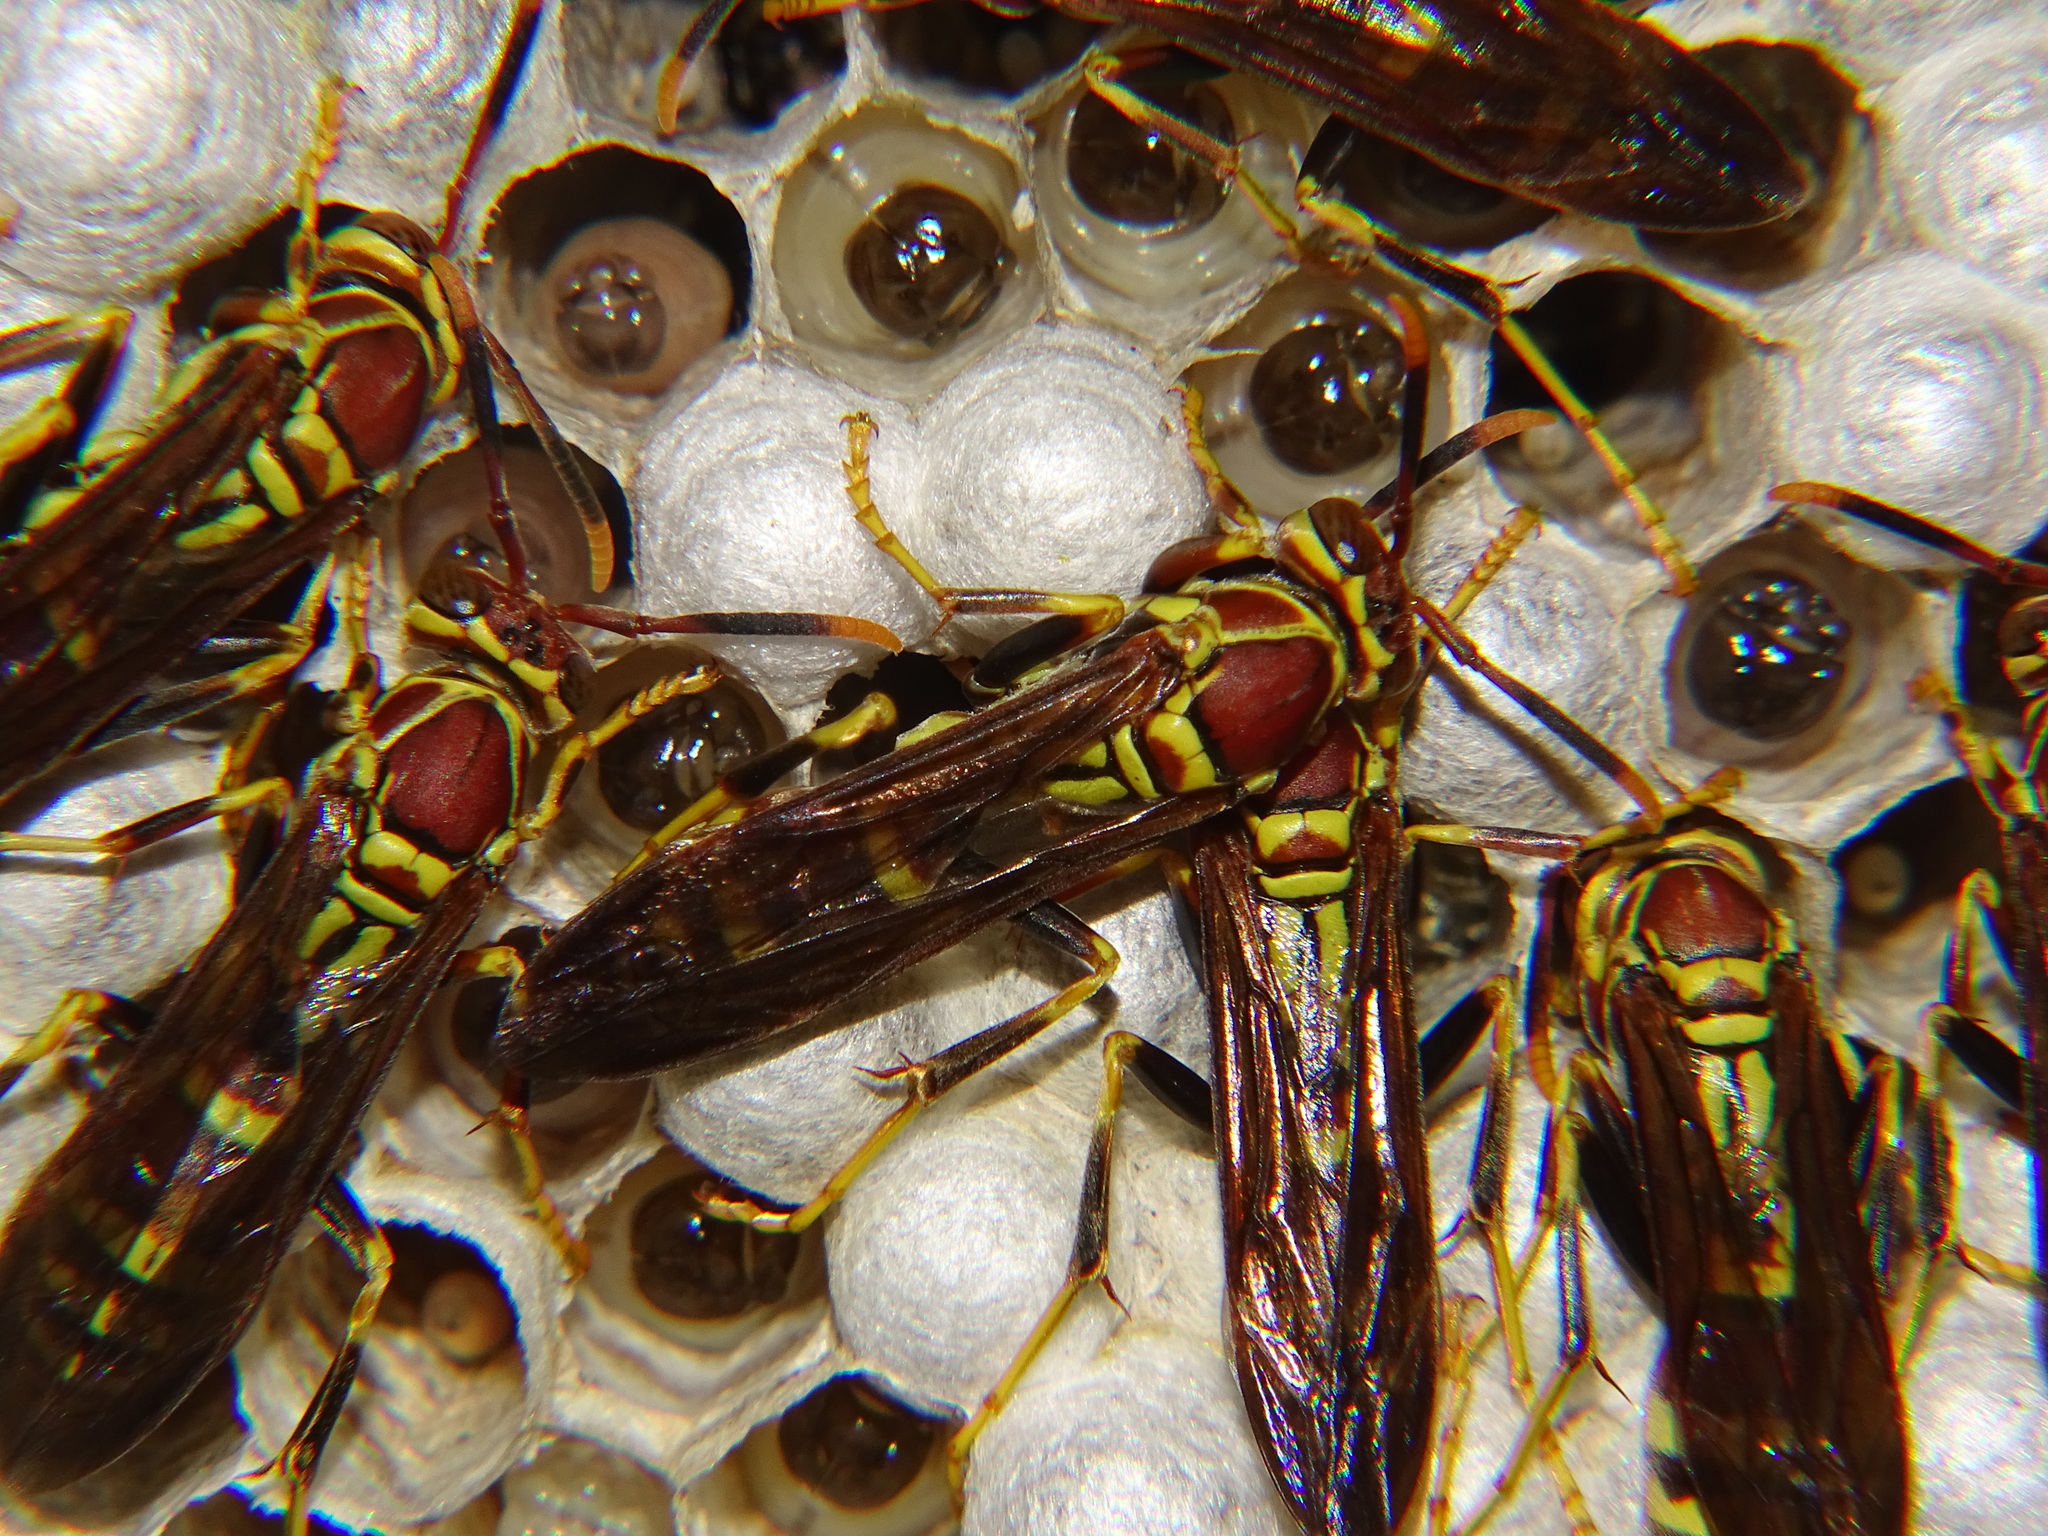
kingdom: Animalia
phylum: Arthropoda
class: Insecta
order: Hymenoptera
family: Eumenidae
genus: Polistes
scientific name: Polistes exclamans
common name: Paper wasp
